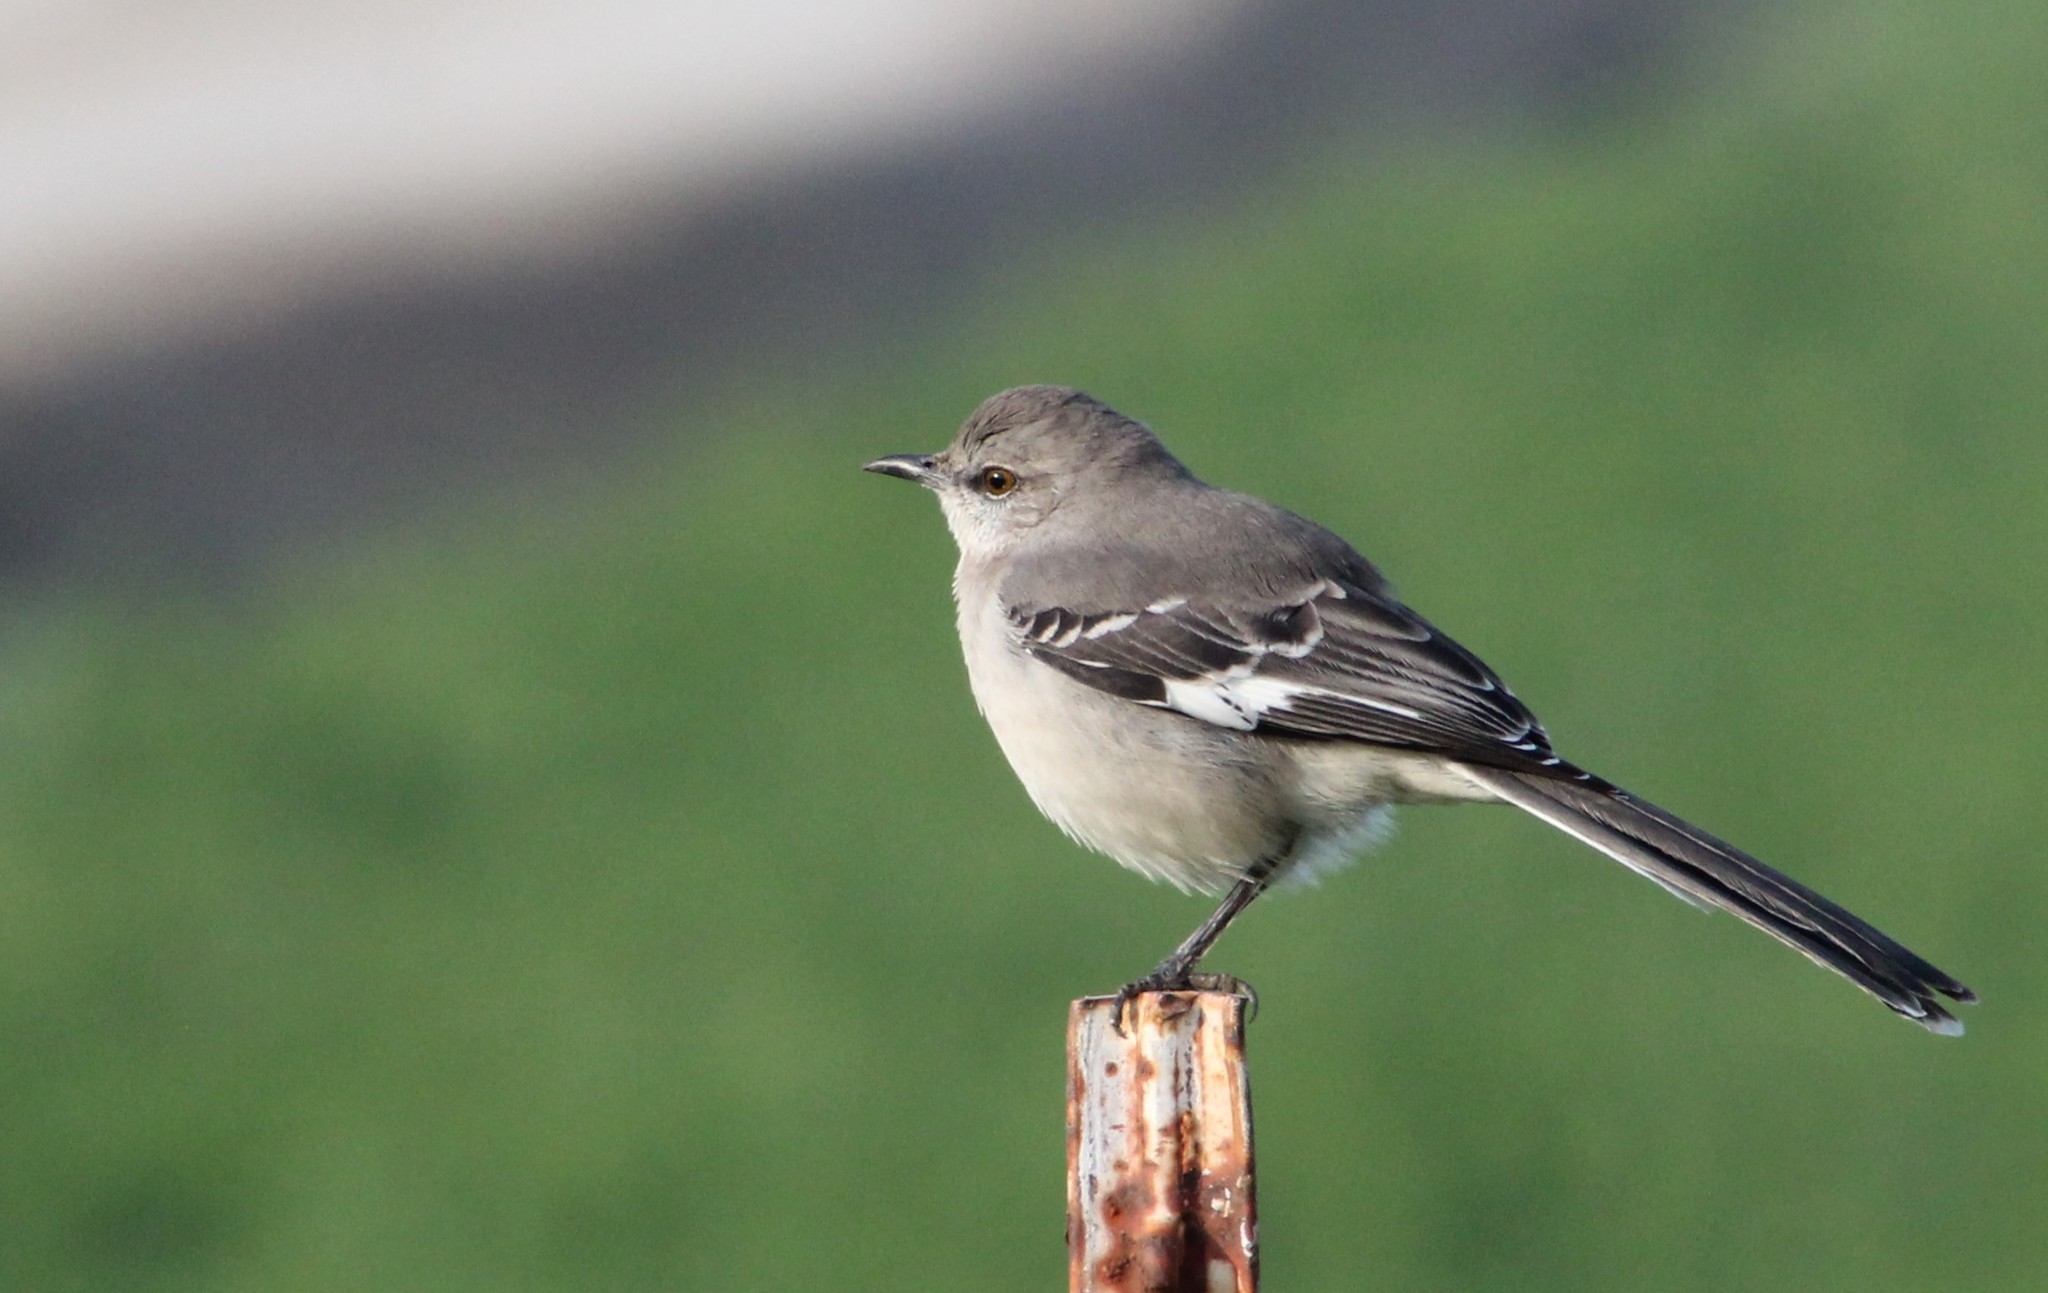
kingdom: Animalia
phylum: Chordata
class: Aves
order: Passeriformes
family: Mimidae
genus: Mimus
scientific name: Mimus polyglottos
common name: Northern mockingbird
